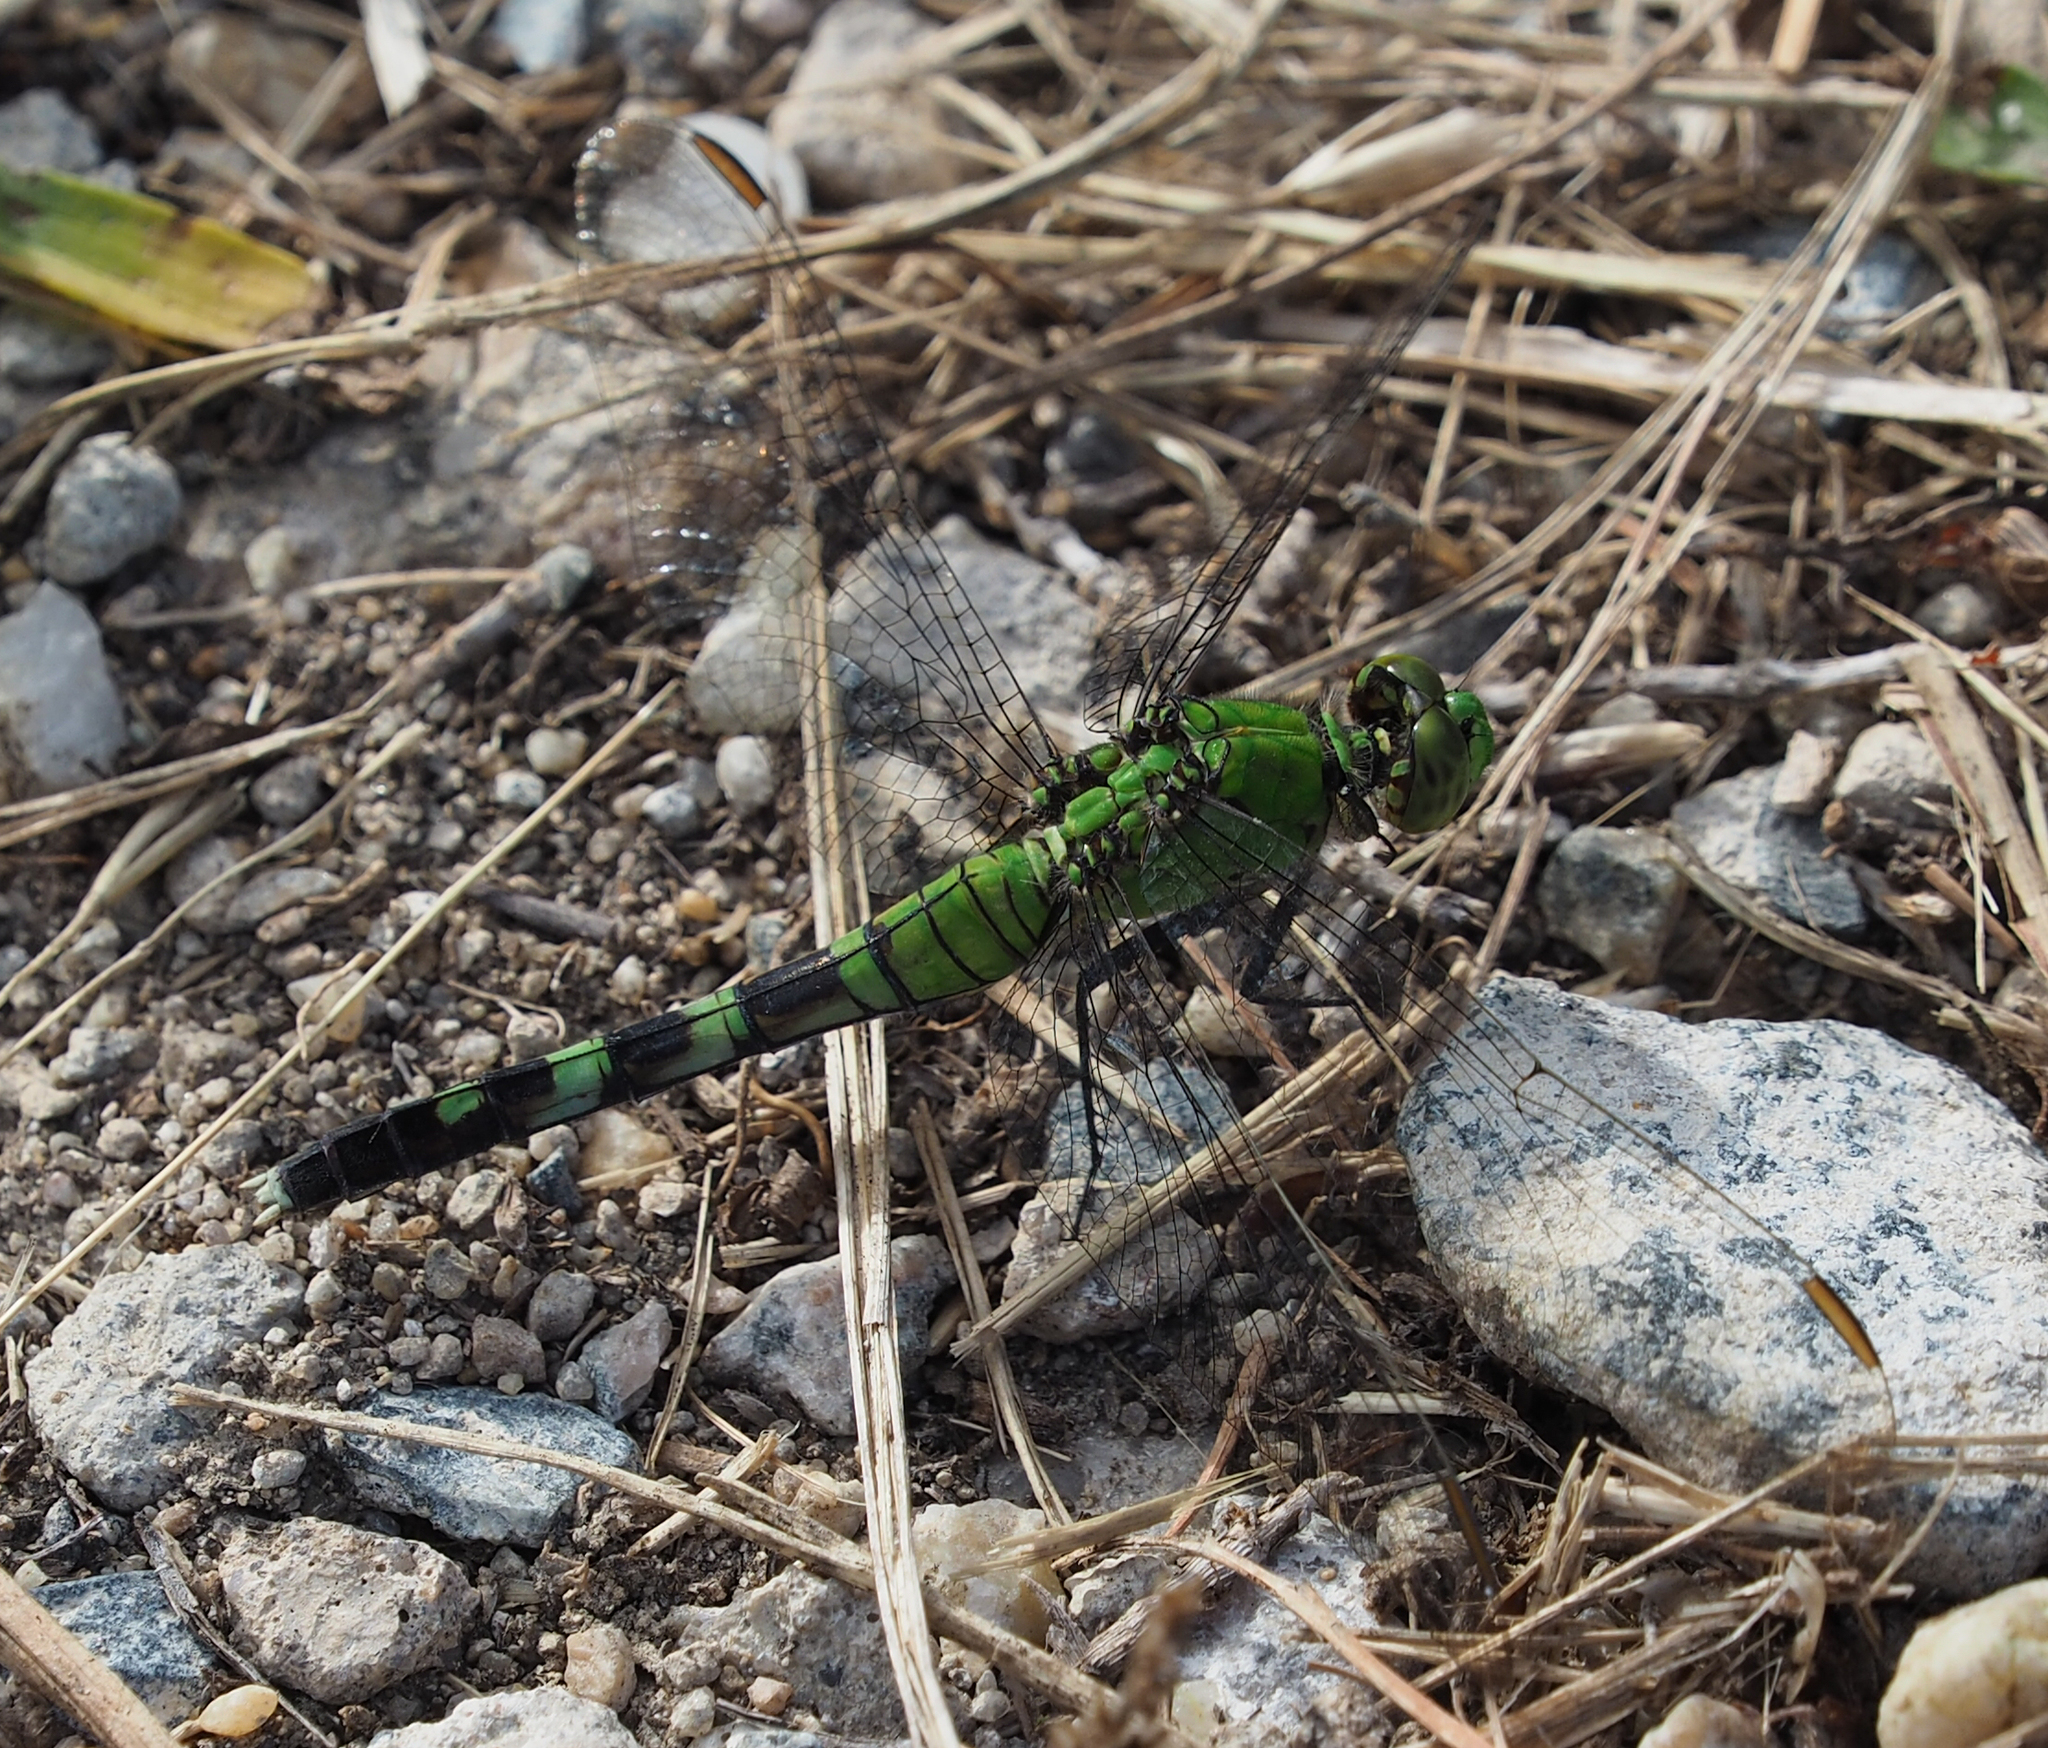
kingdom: Animalia
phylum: Arthropoda
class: Insecta
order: Odonata
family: Libellulidae
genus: Erythemis
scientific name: Erythemis simplicicollis
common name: Eastern pondhawk
